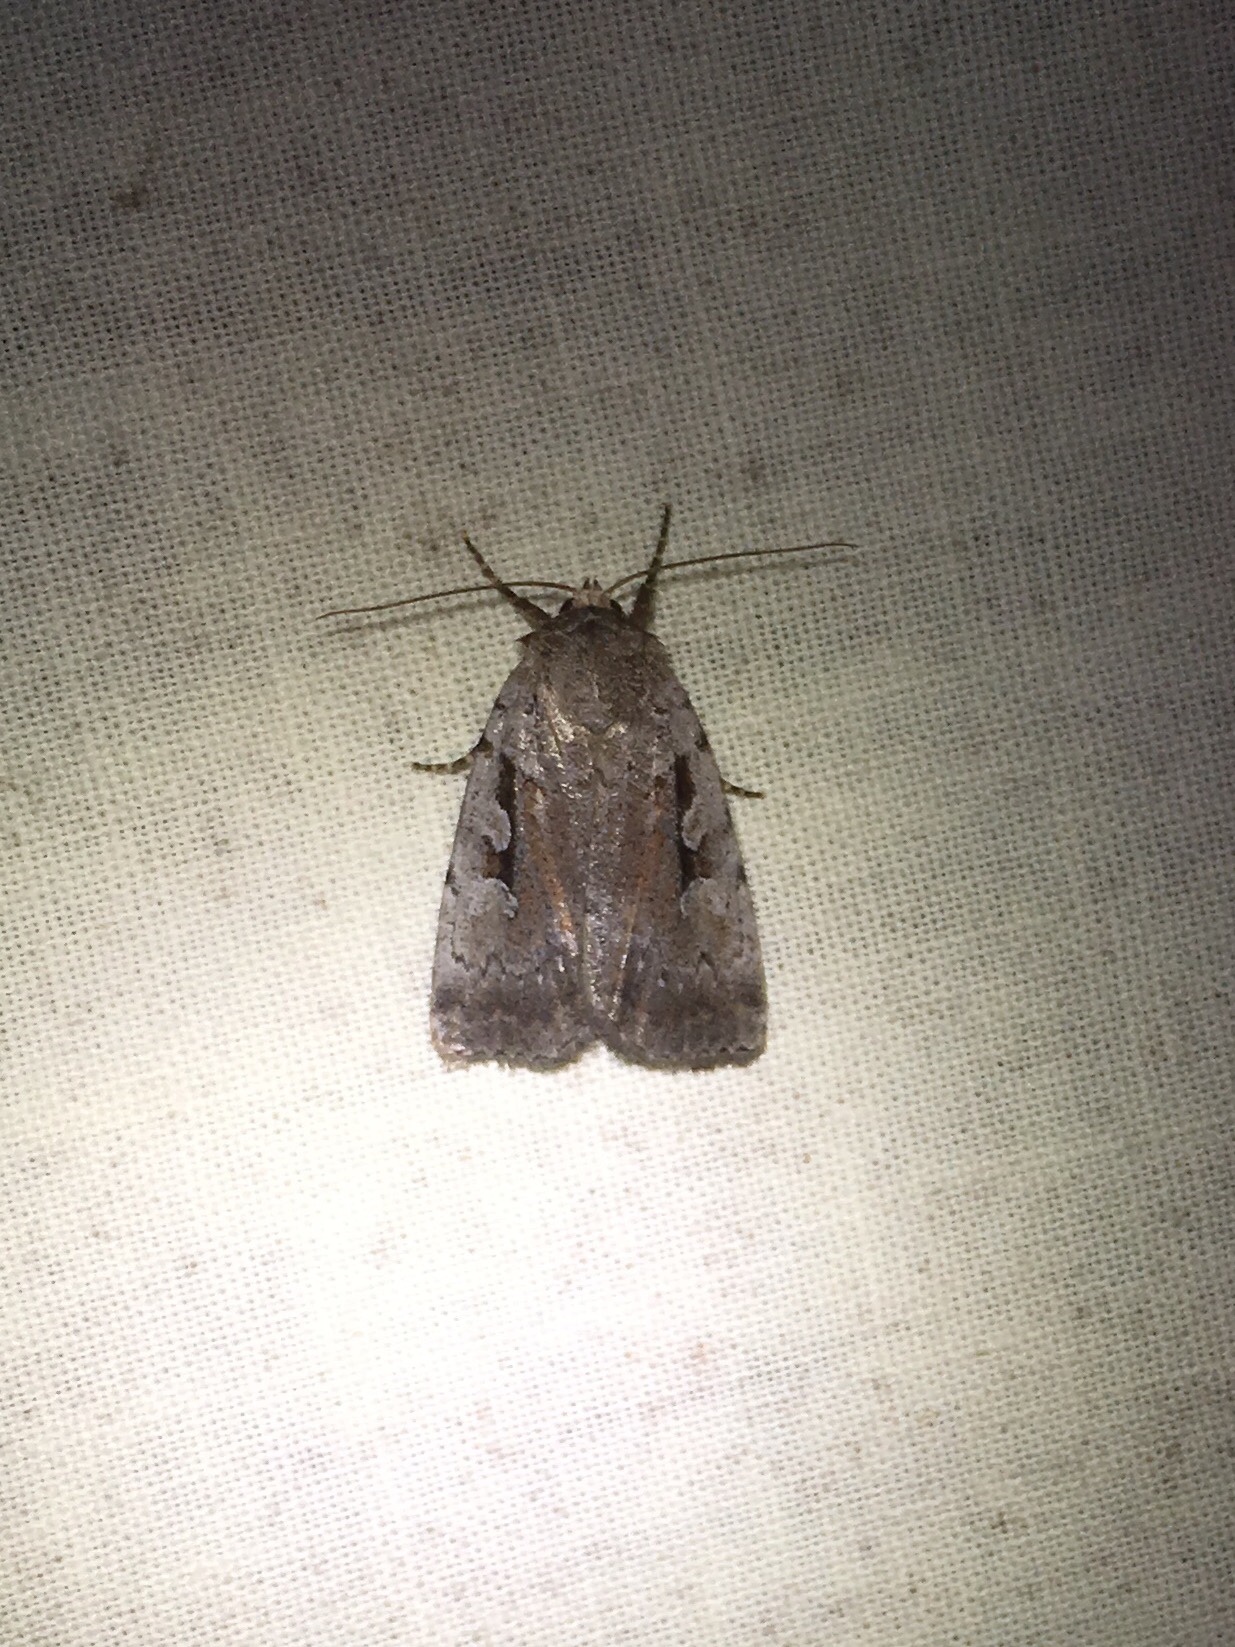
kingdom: Animalia
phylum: Arthropoda
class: Insecta
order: Lepidoptera
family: Noctuidae
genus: Coenophila
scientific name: Coenophila opacifrons
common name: Blueberry dart
